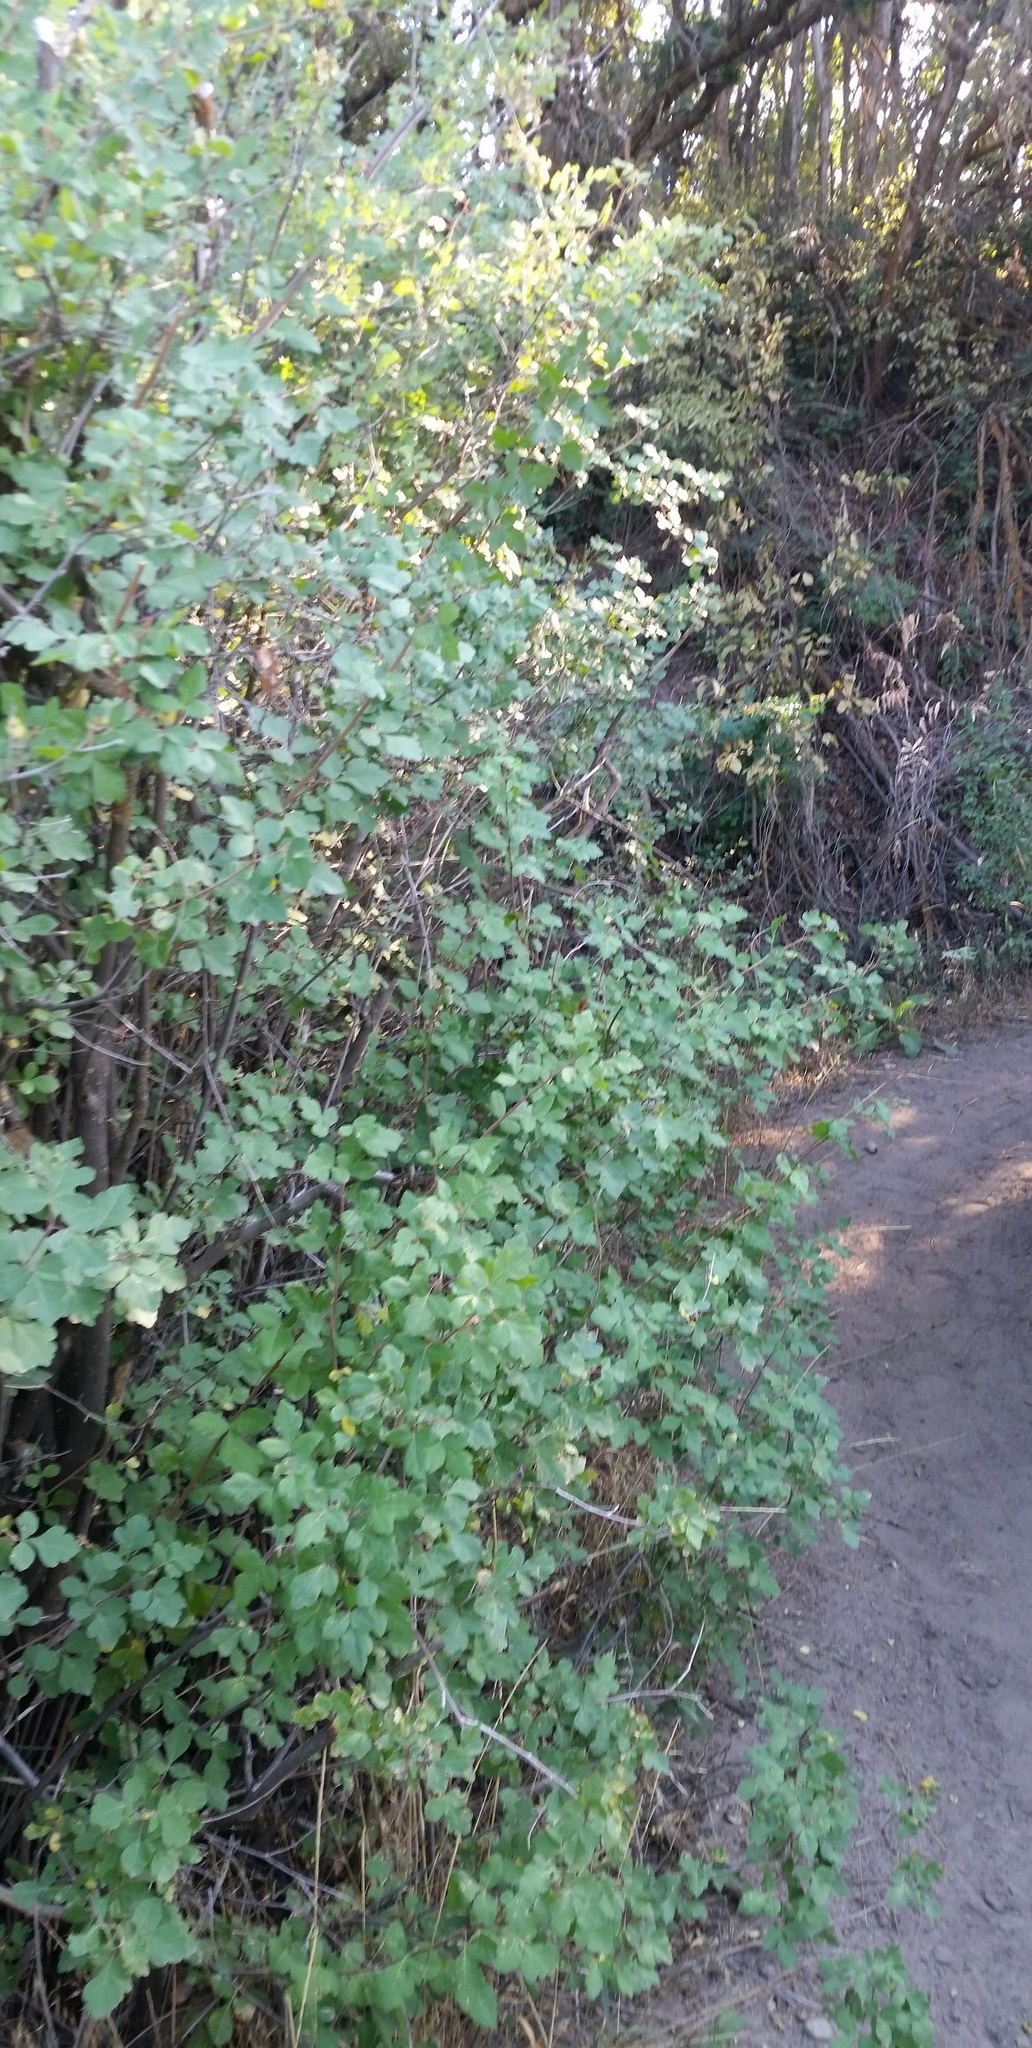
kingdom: Plantae
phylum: Tracheophyta
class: Magnoliopsida
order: Sapindales
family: Anacardiaceae
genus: Rhus
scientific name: Rhus aromatica
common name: Aromatic sumac
